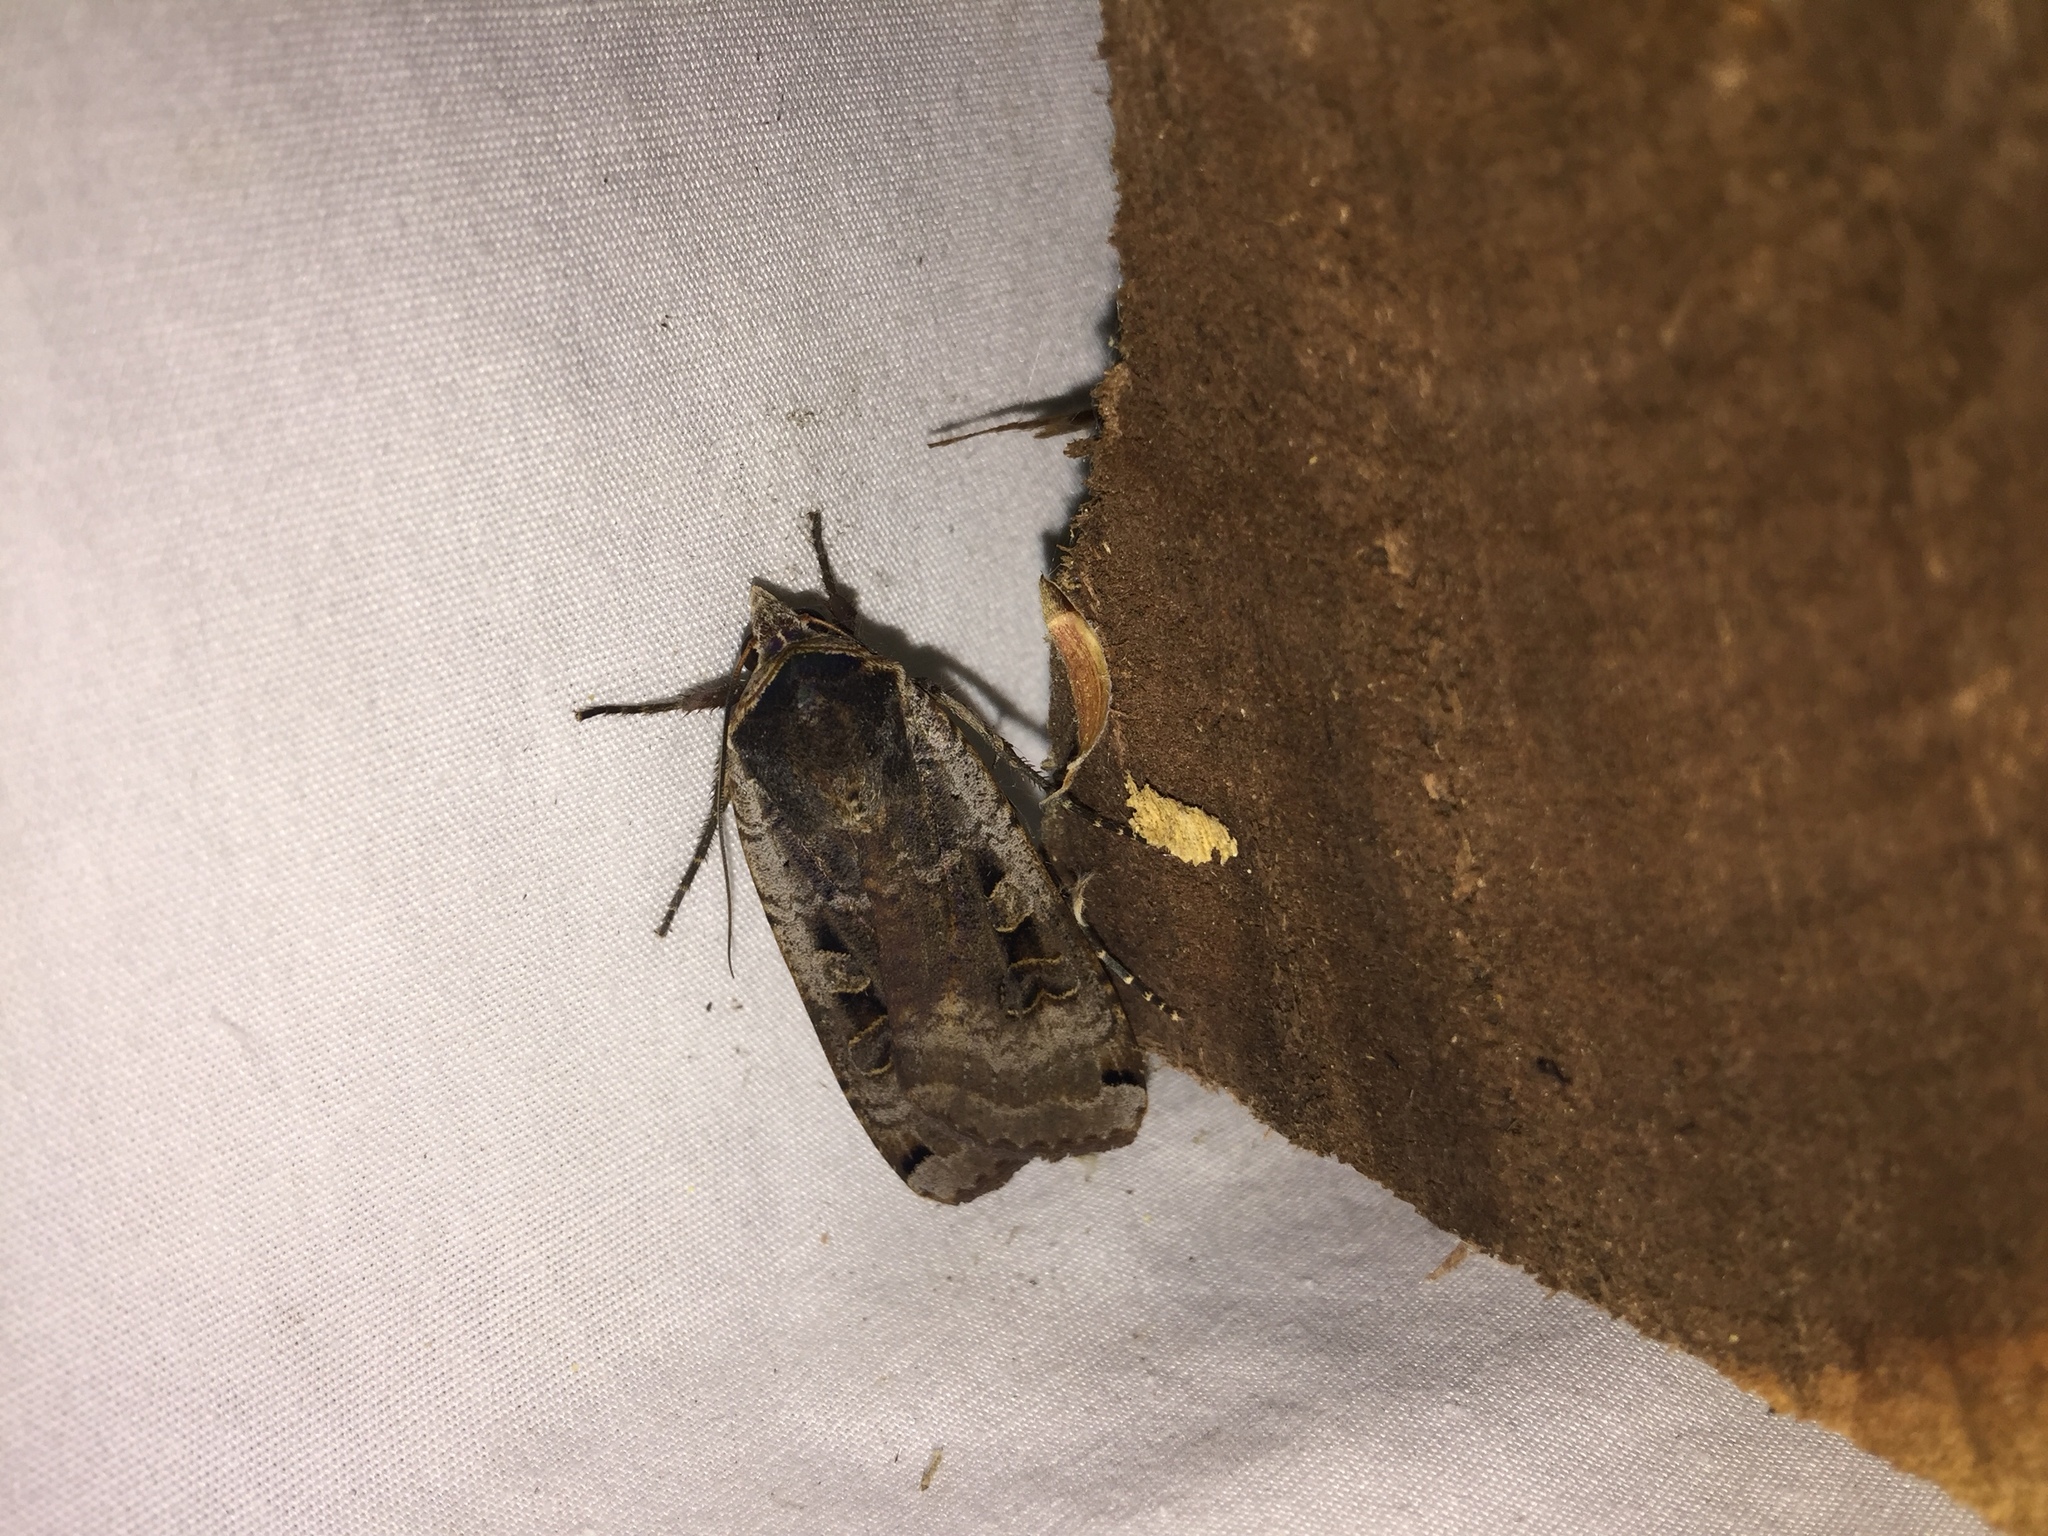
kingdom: Animalia
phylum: Arthropoda
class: Insecta
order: Lepidoptera
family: Noctuidae
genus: Noctua
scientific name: Noctua pronuba
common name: Large yellow underwing
